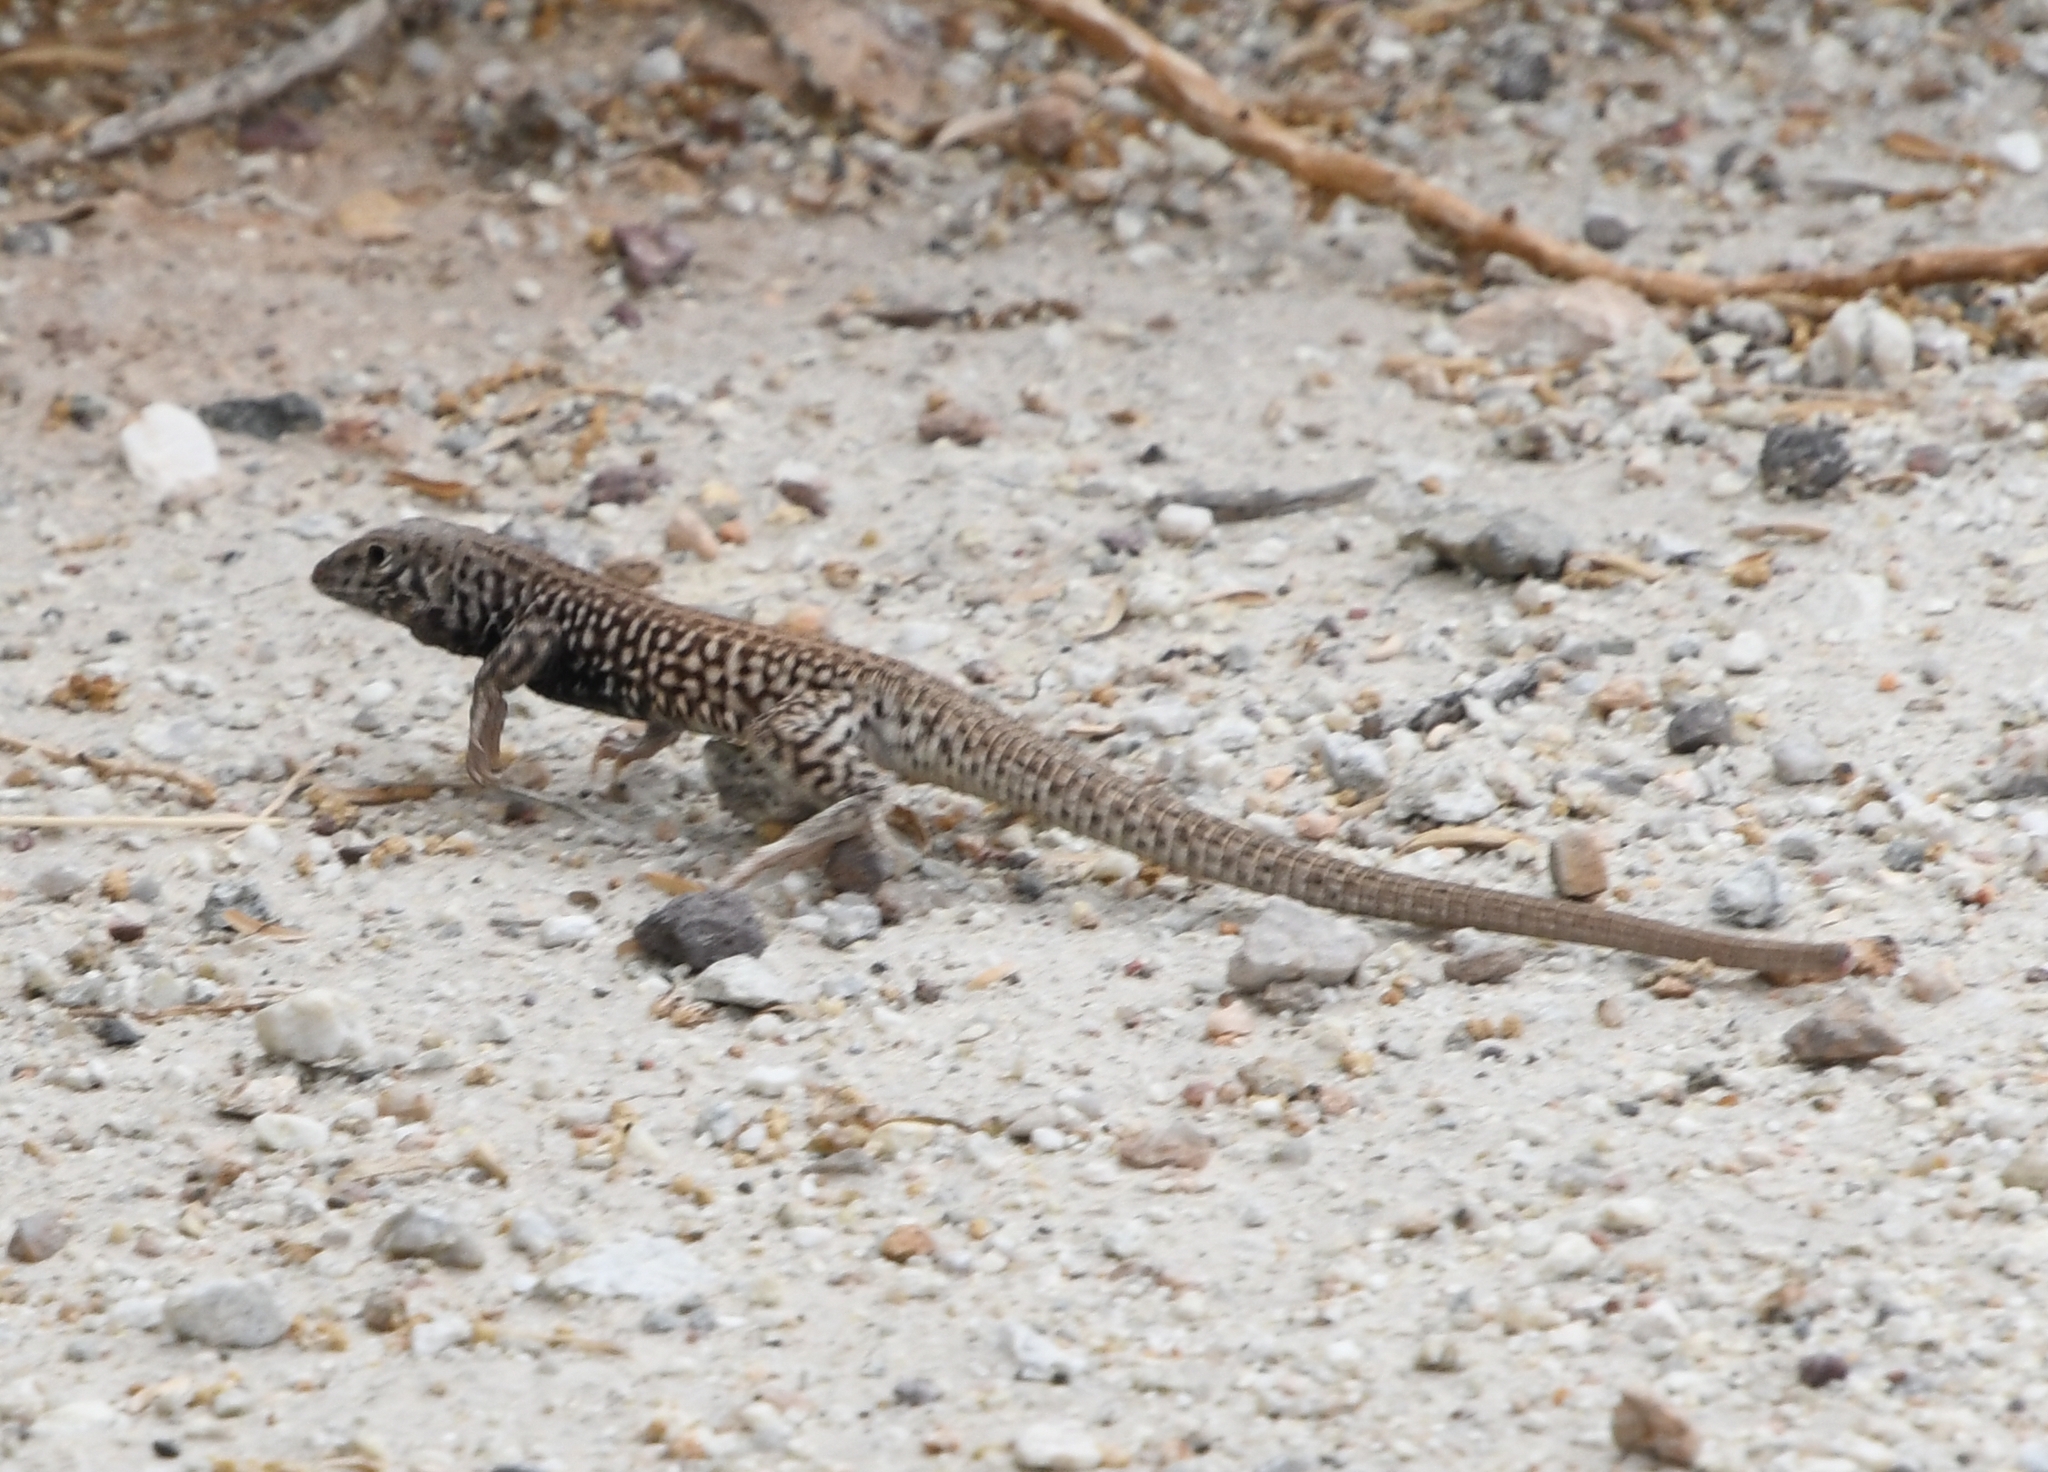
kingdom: Animalia
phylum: Chordata
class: Squamata
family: Teiidae
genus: Aspidoscelis
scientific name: Aspidoscelis tigris
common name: Tiger whiptail
